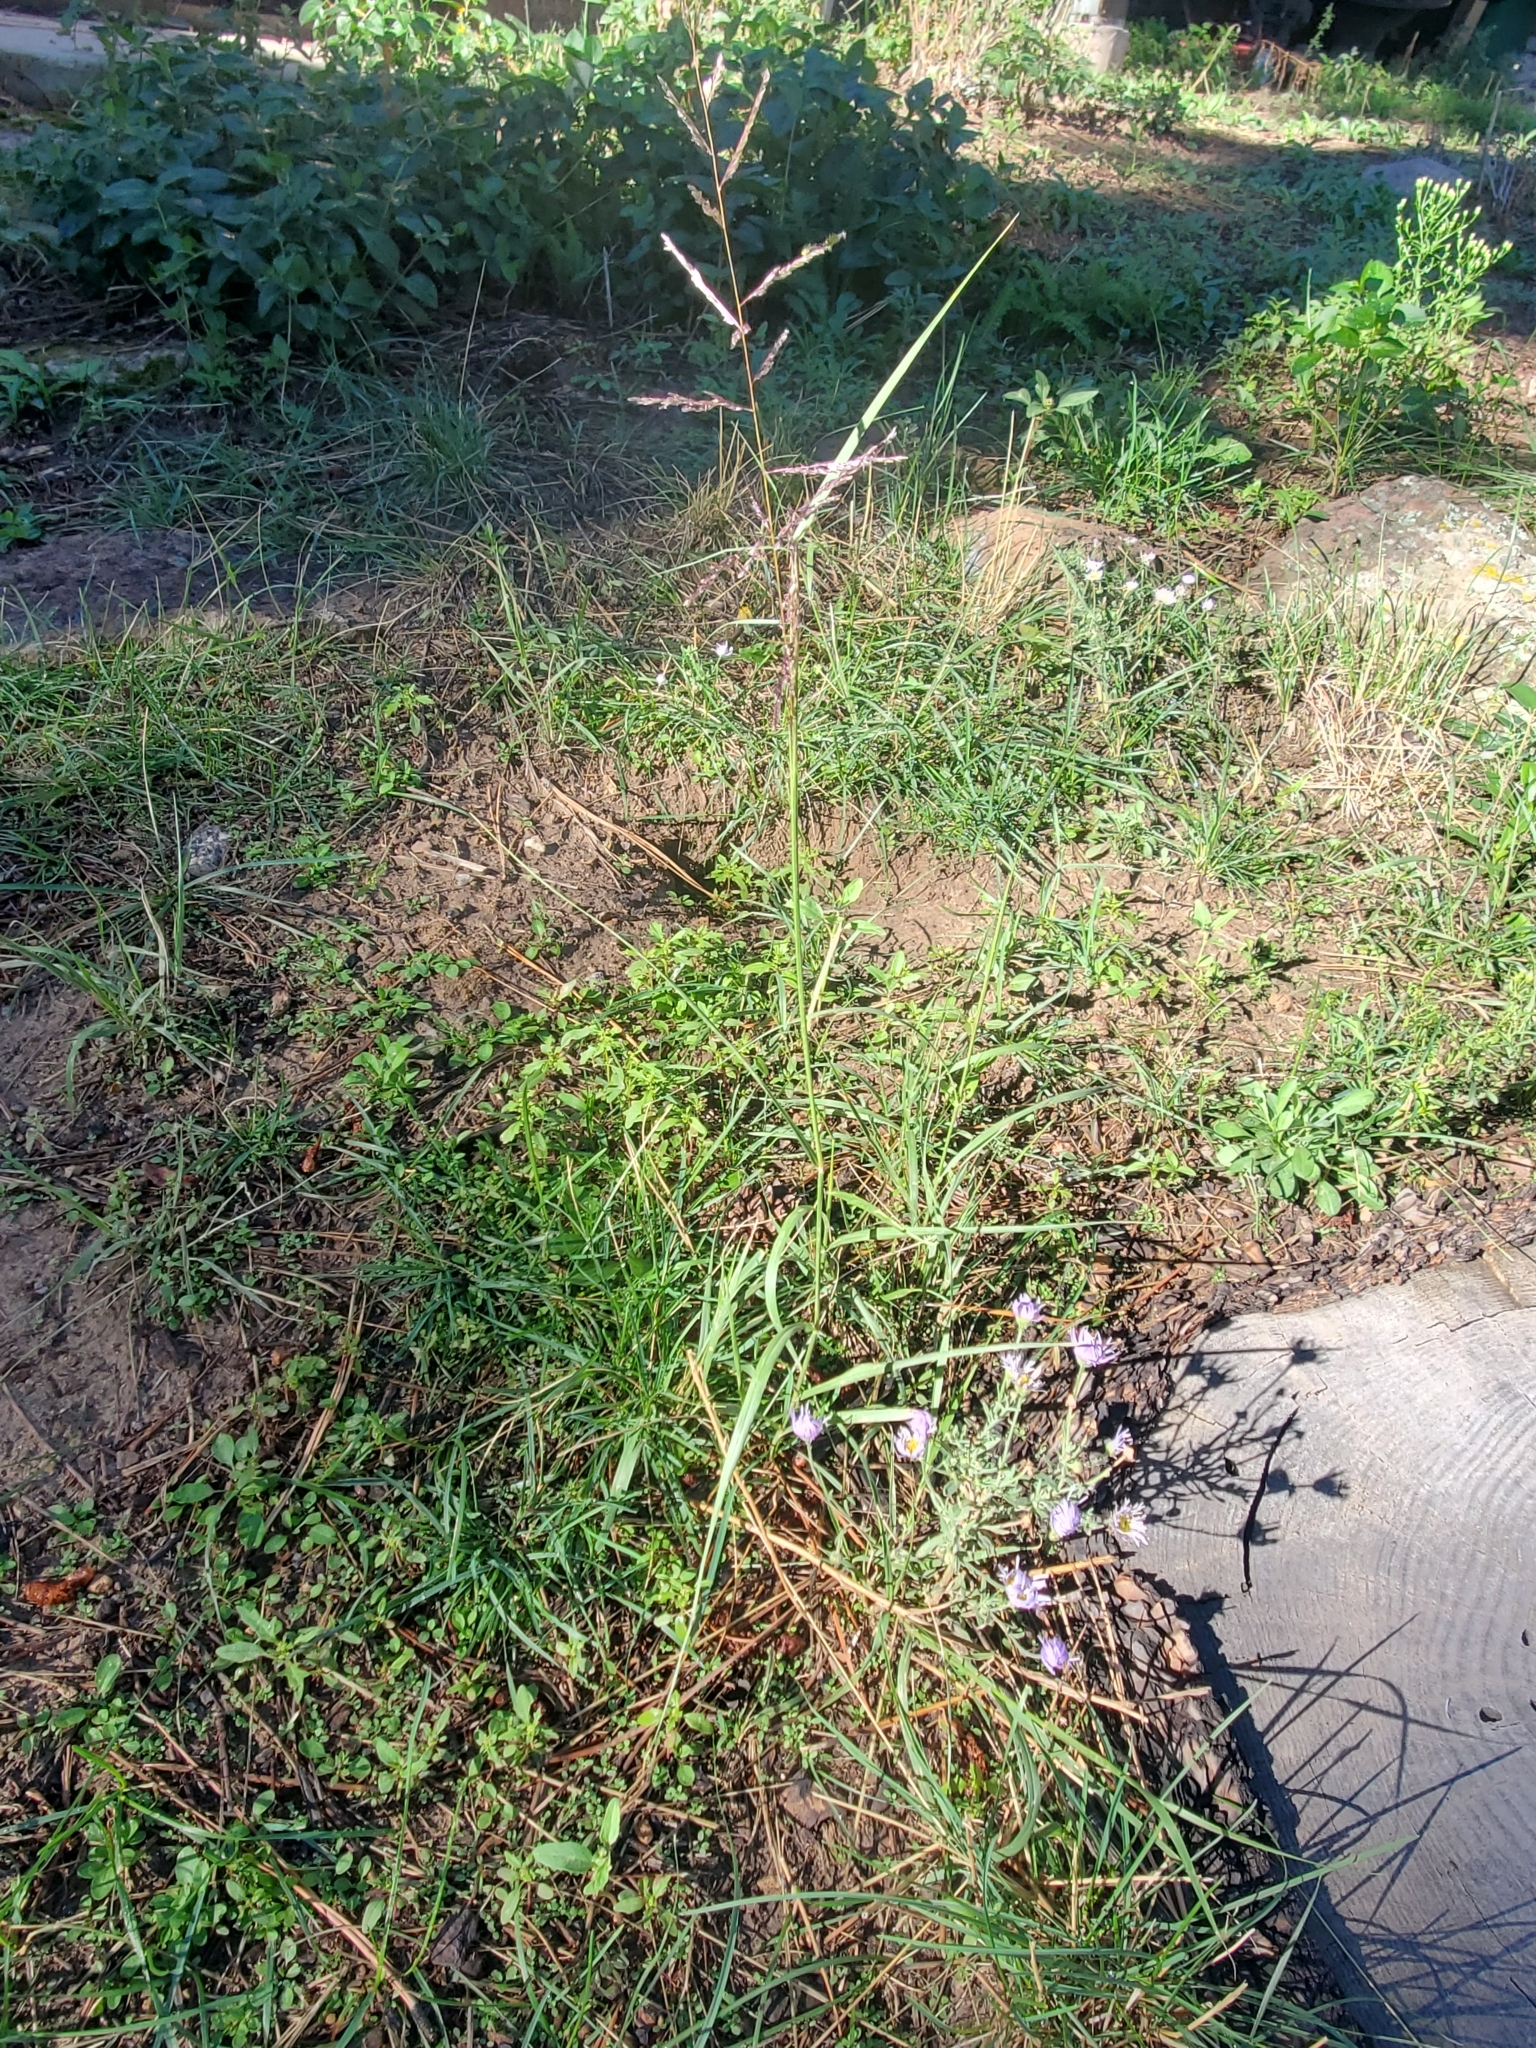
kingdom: Plantae
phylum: Tracheophyta
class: Liliopsida
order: Poales
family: Poaceae
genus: Sporobolus
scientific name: Sporobolus cryptandrus
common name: Sand dropseed
